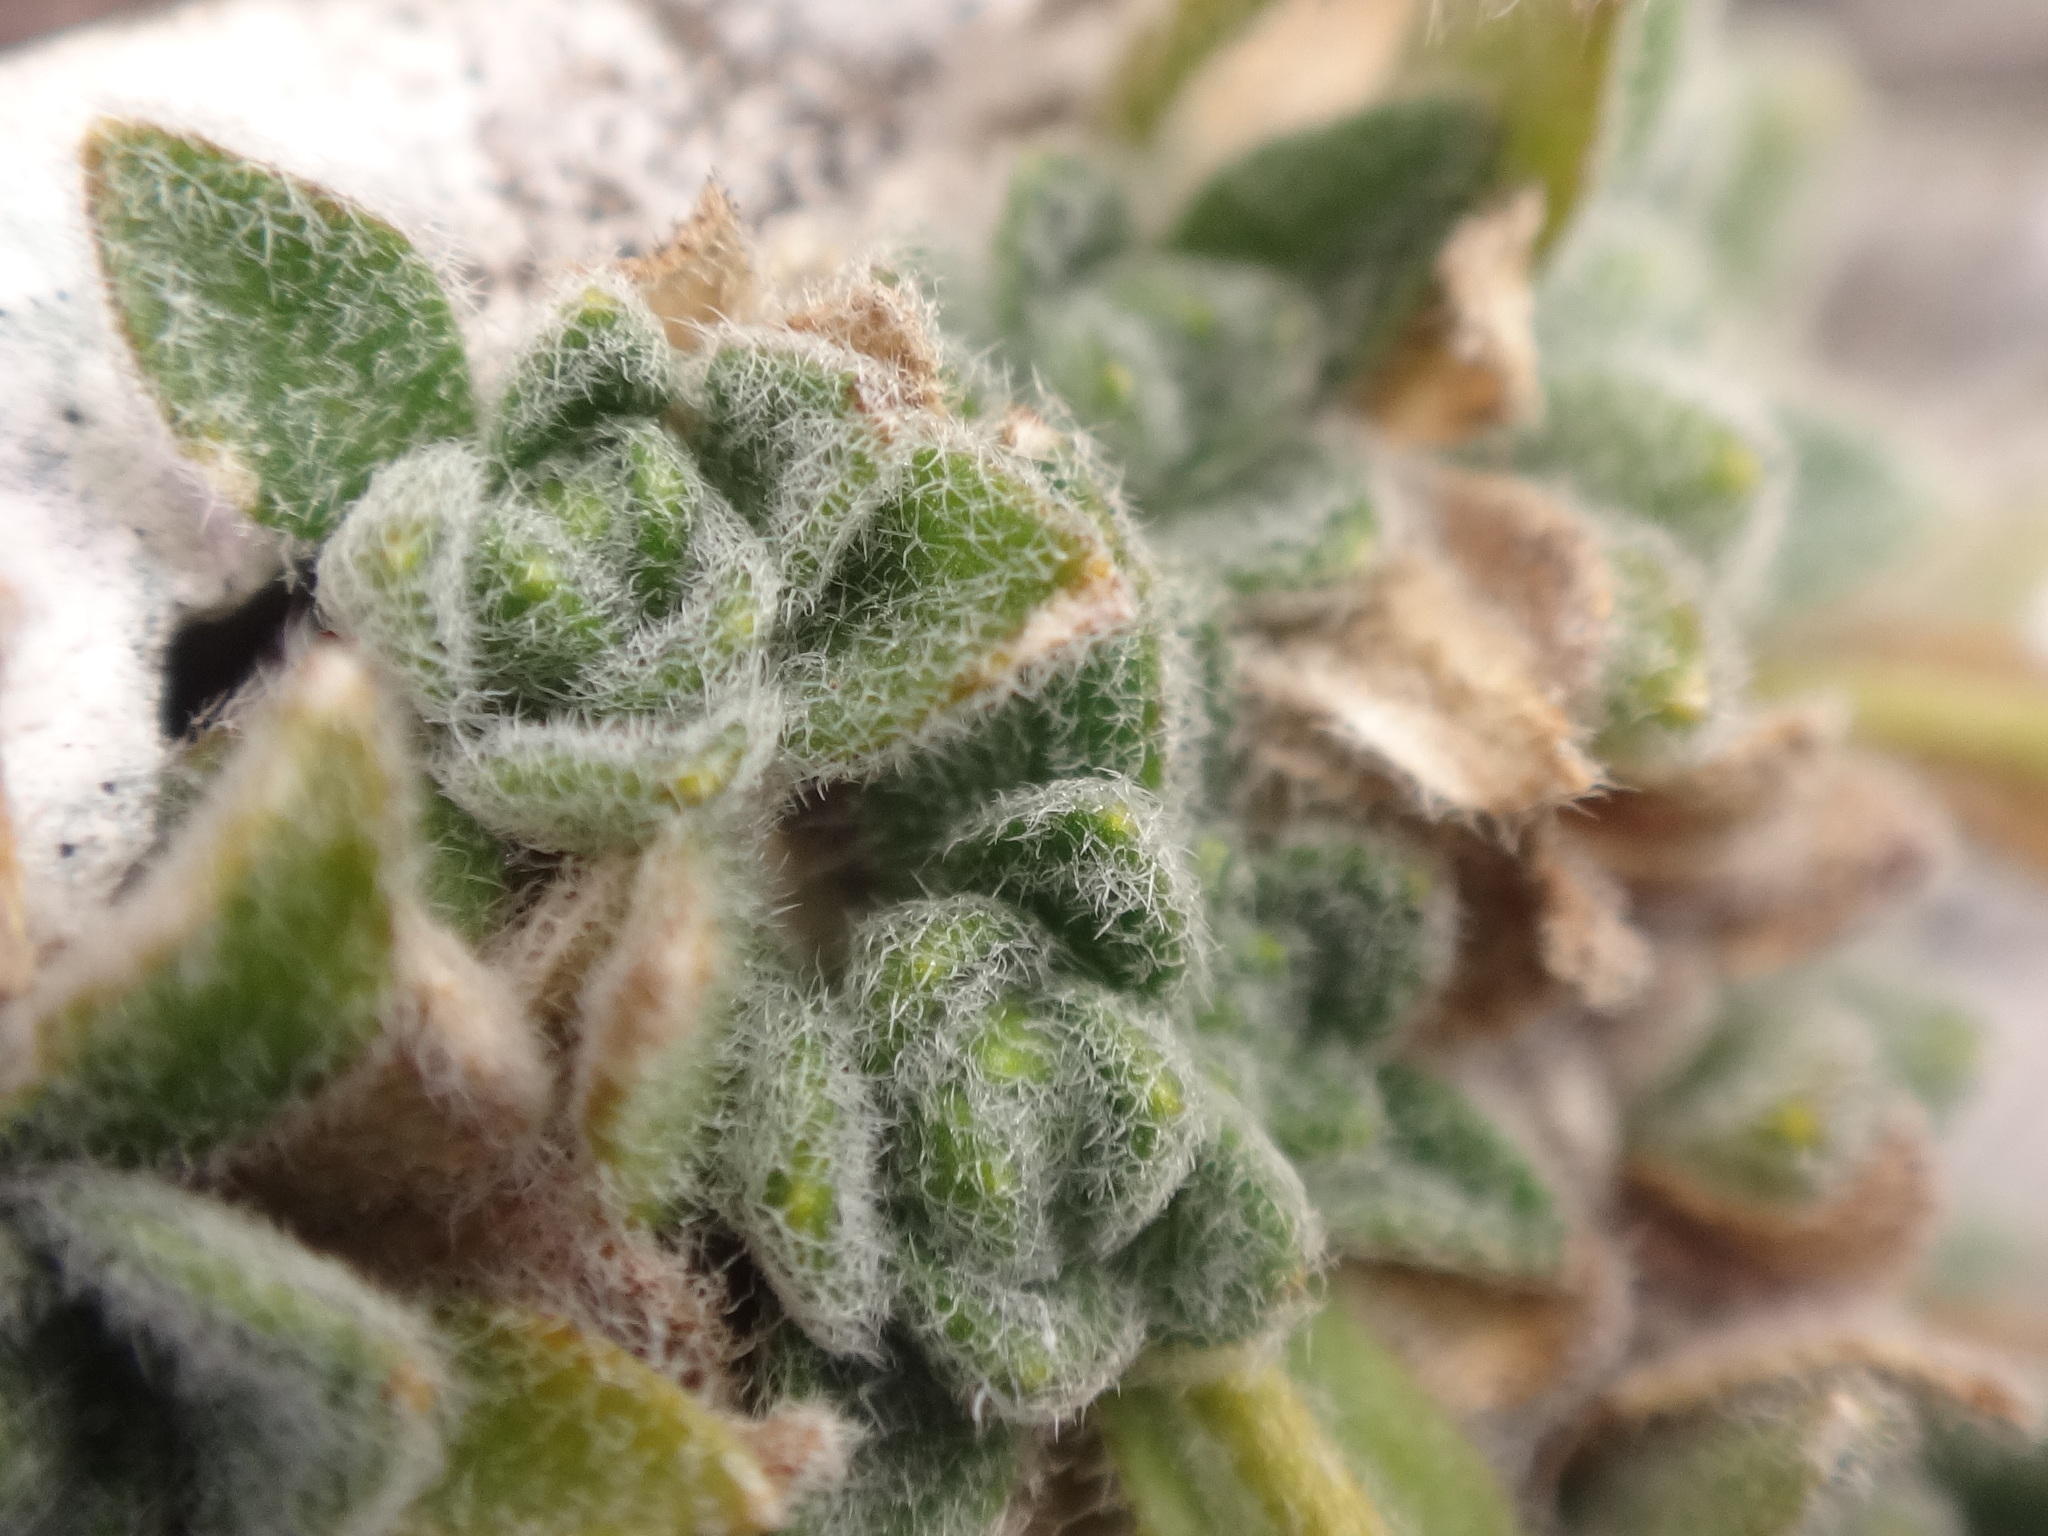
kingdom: Plantae
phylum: Tracheophyta
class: Magnoliopsida
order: Brassicales
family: Brassicaceae
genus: Draba
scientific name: Draba dubia
